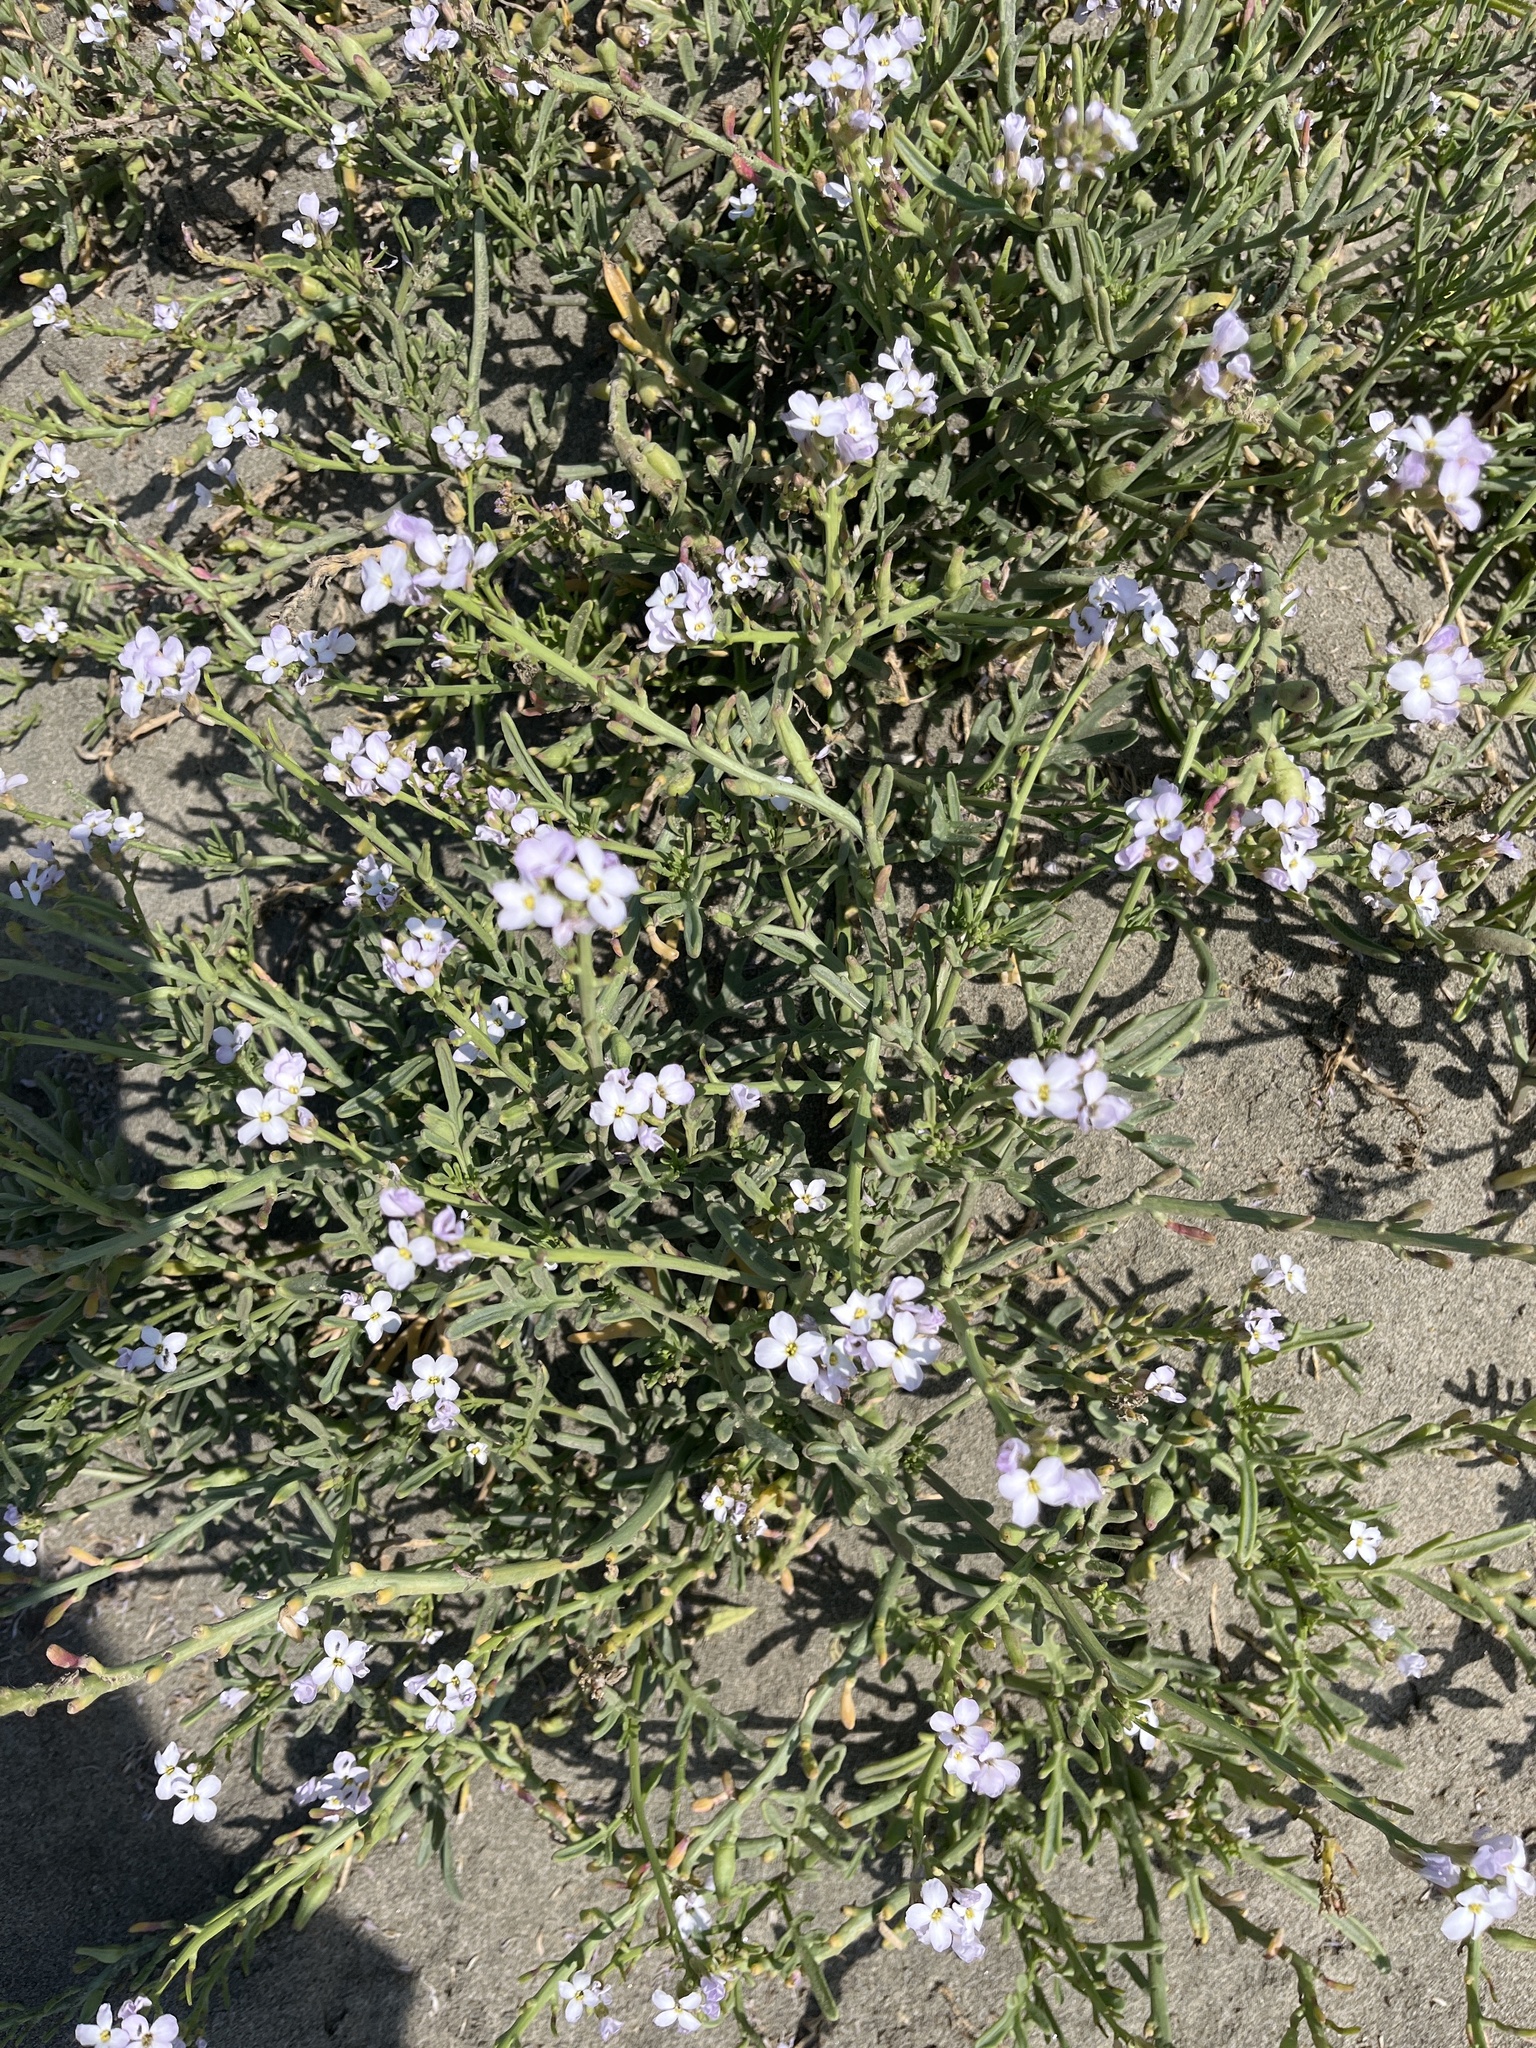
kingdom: Plantae
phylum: Tracheophyta
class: Magnoliopsida
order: Brassicales
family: Brassicaceae
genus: Cakile
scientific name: Cakile maritima
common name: Sea rocket
